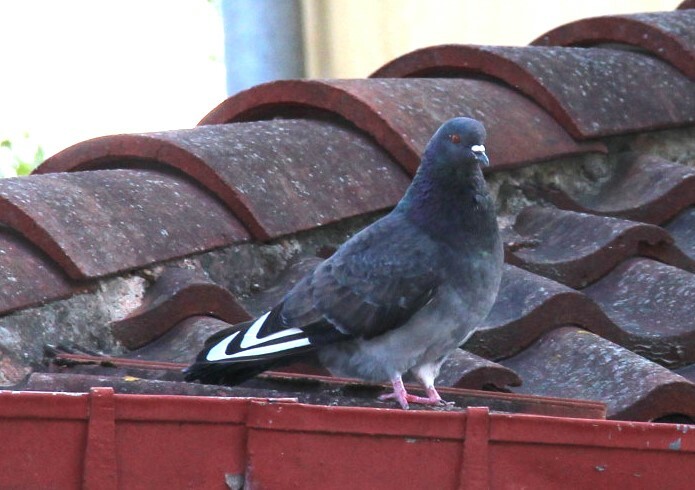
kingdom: Animalia
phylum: Chordata
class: Aves
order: Columbiformes
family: Columbidae
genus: Columba
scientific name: Columba livia
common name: Rock pigeon
